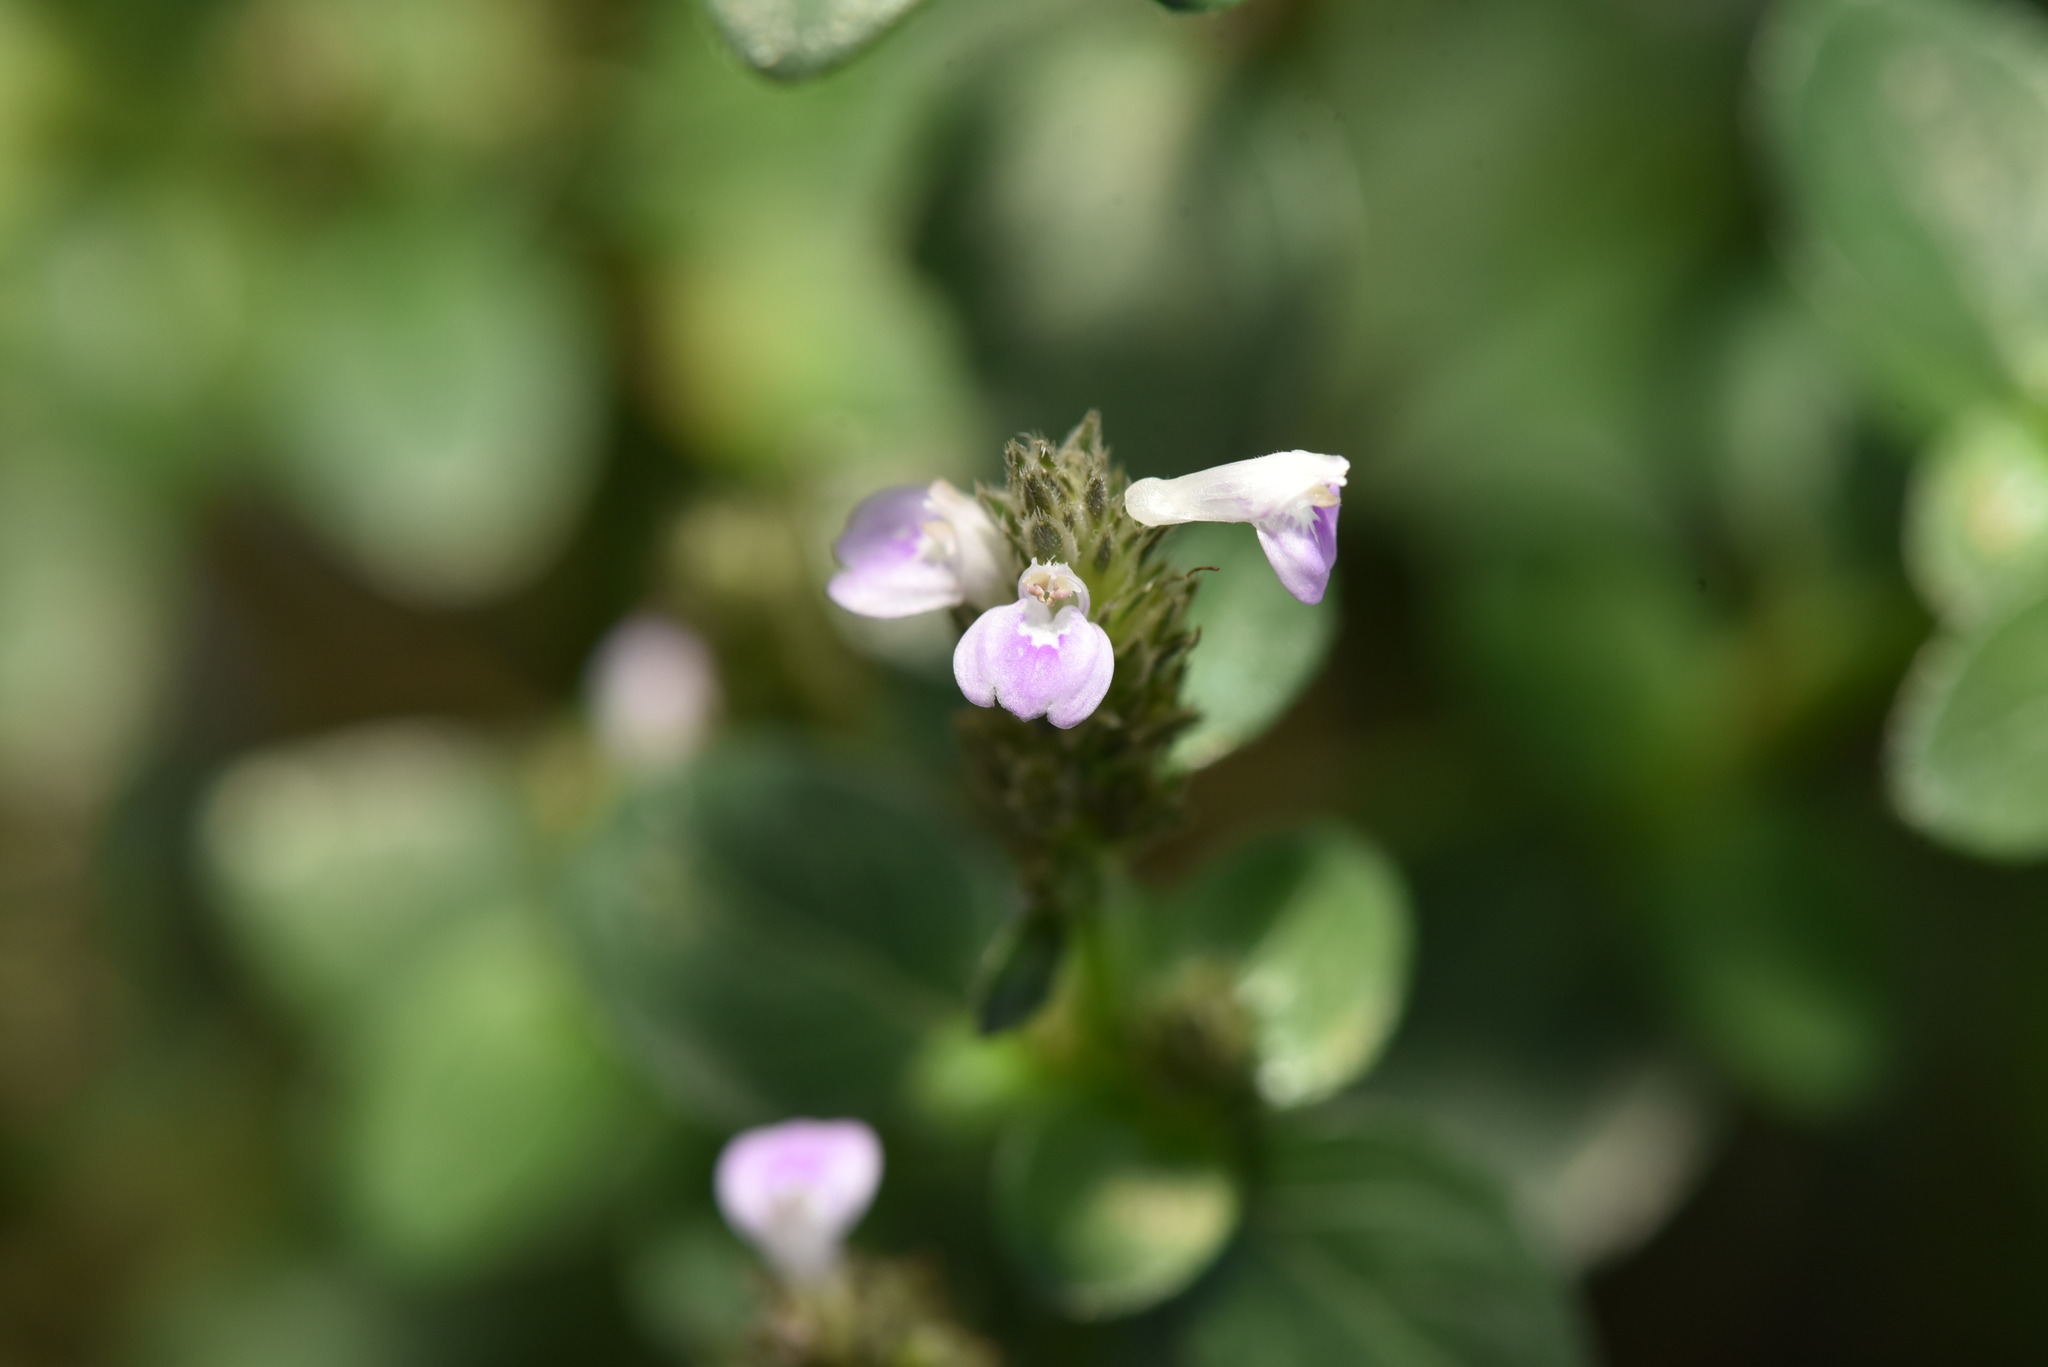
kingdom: Plantae
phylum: Tracheophyta
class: Magnoliopsida
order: Lamiales
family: Acanthaceae
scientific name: Acanthaceae
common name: Acanthaceae
